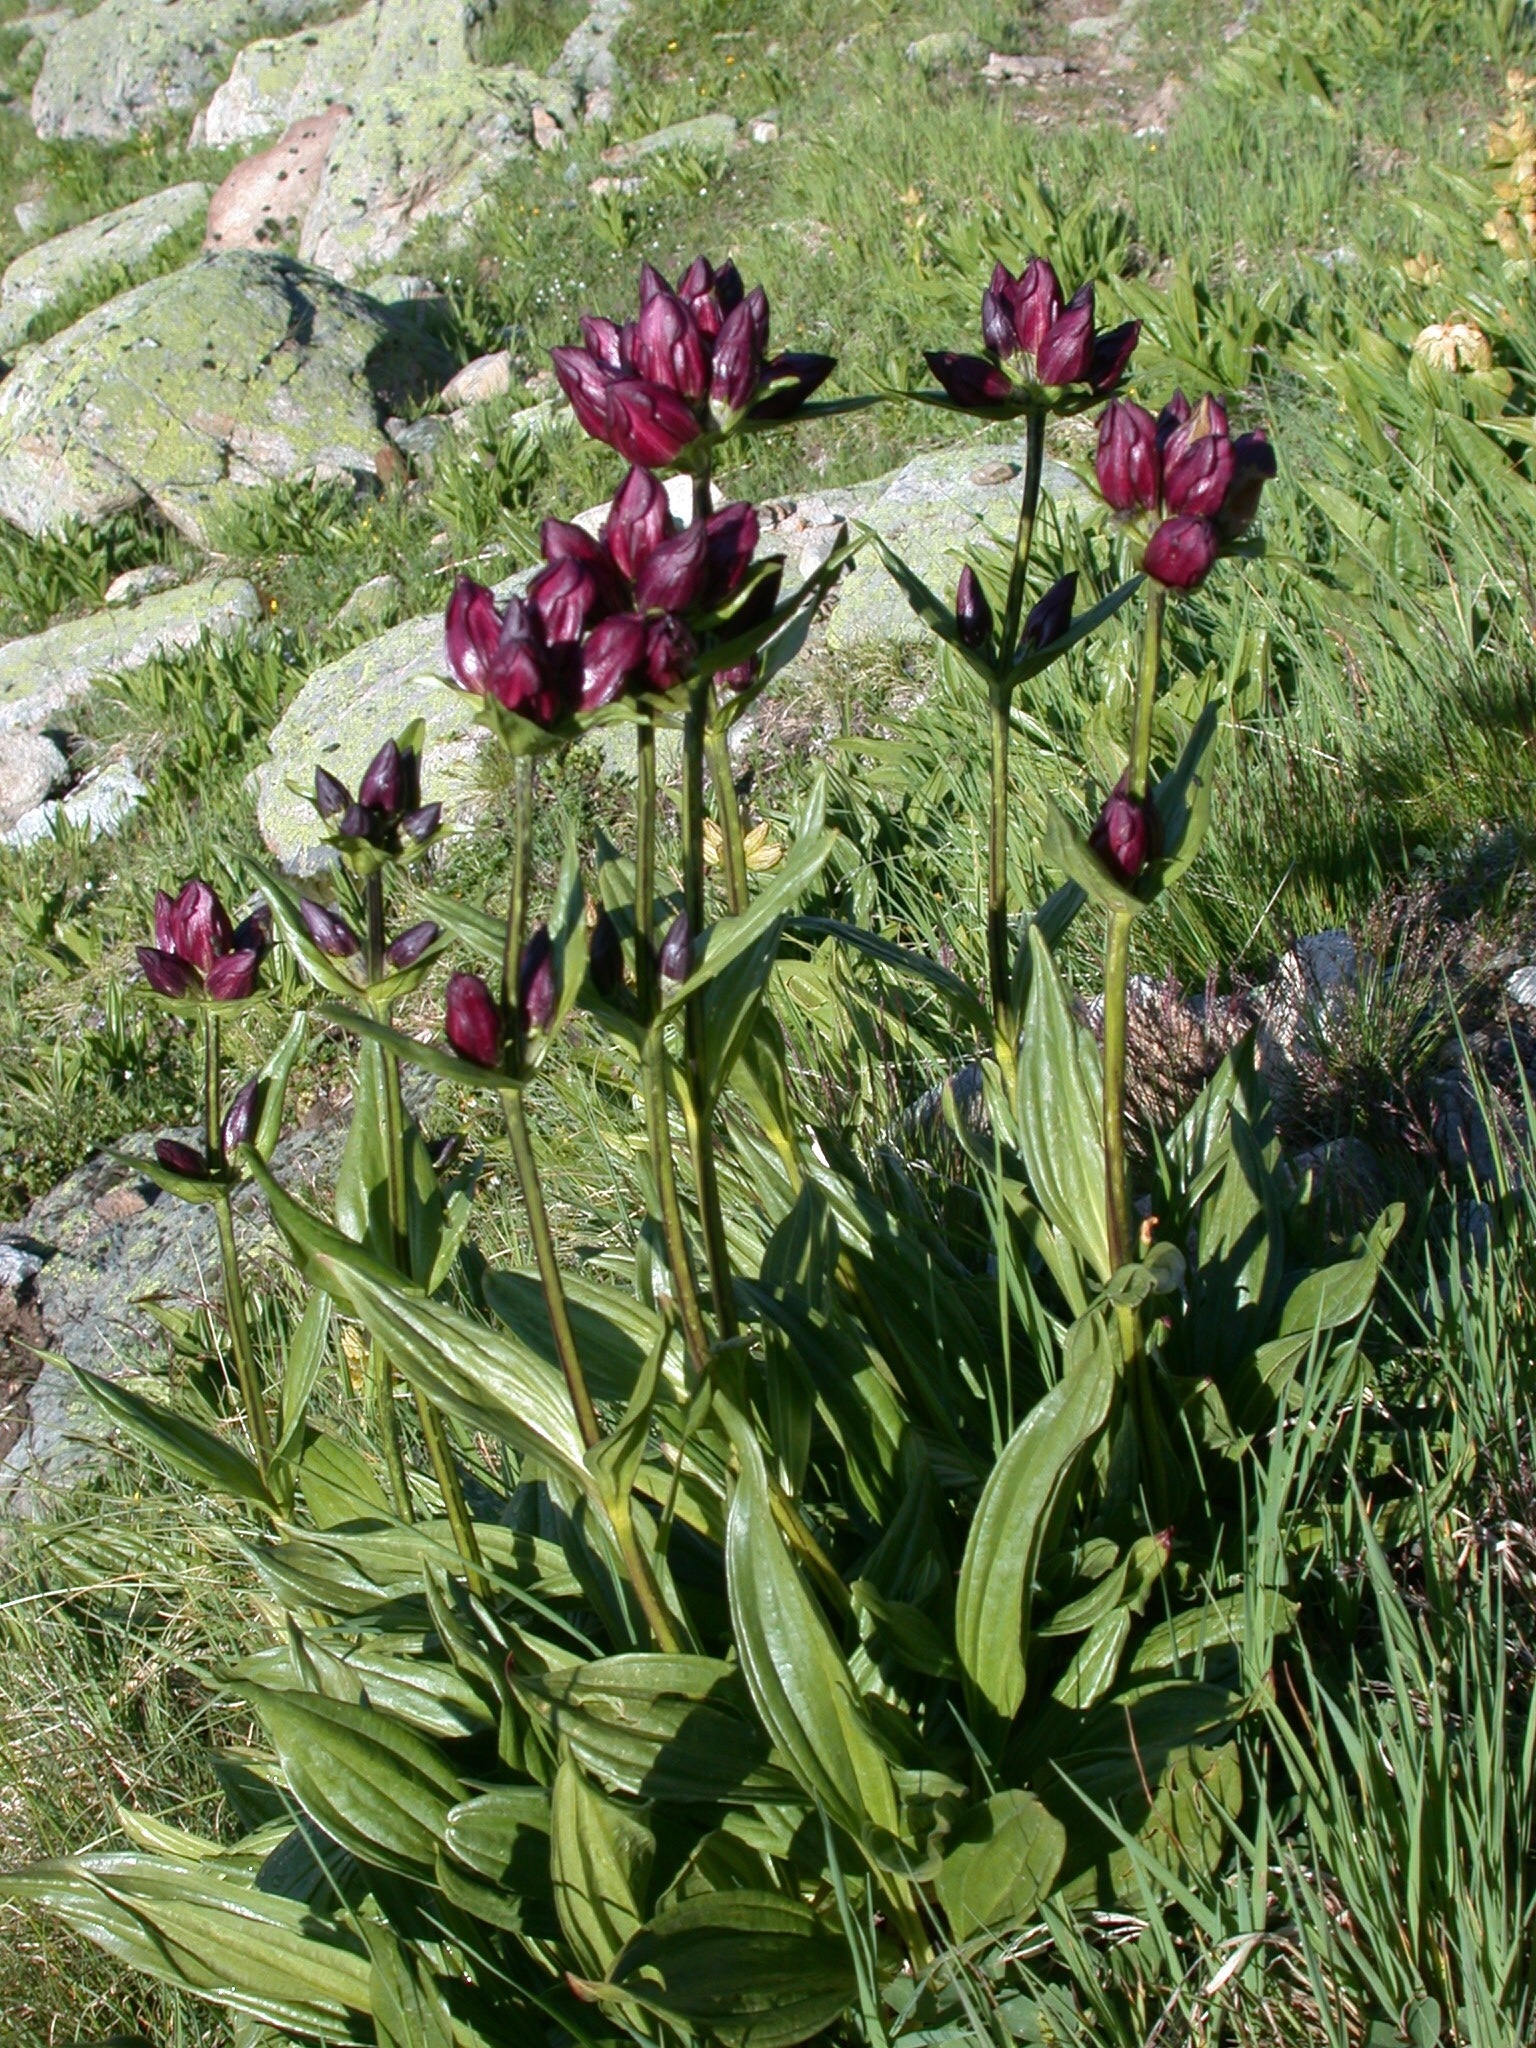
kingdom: Plantae
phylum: Tracheophyta
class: Magnoliopsida
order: Gentianales
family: Gentianaceae
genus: Gentiana
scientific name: Gentiana purpurea
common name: Purple gentian
